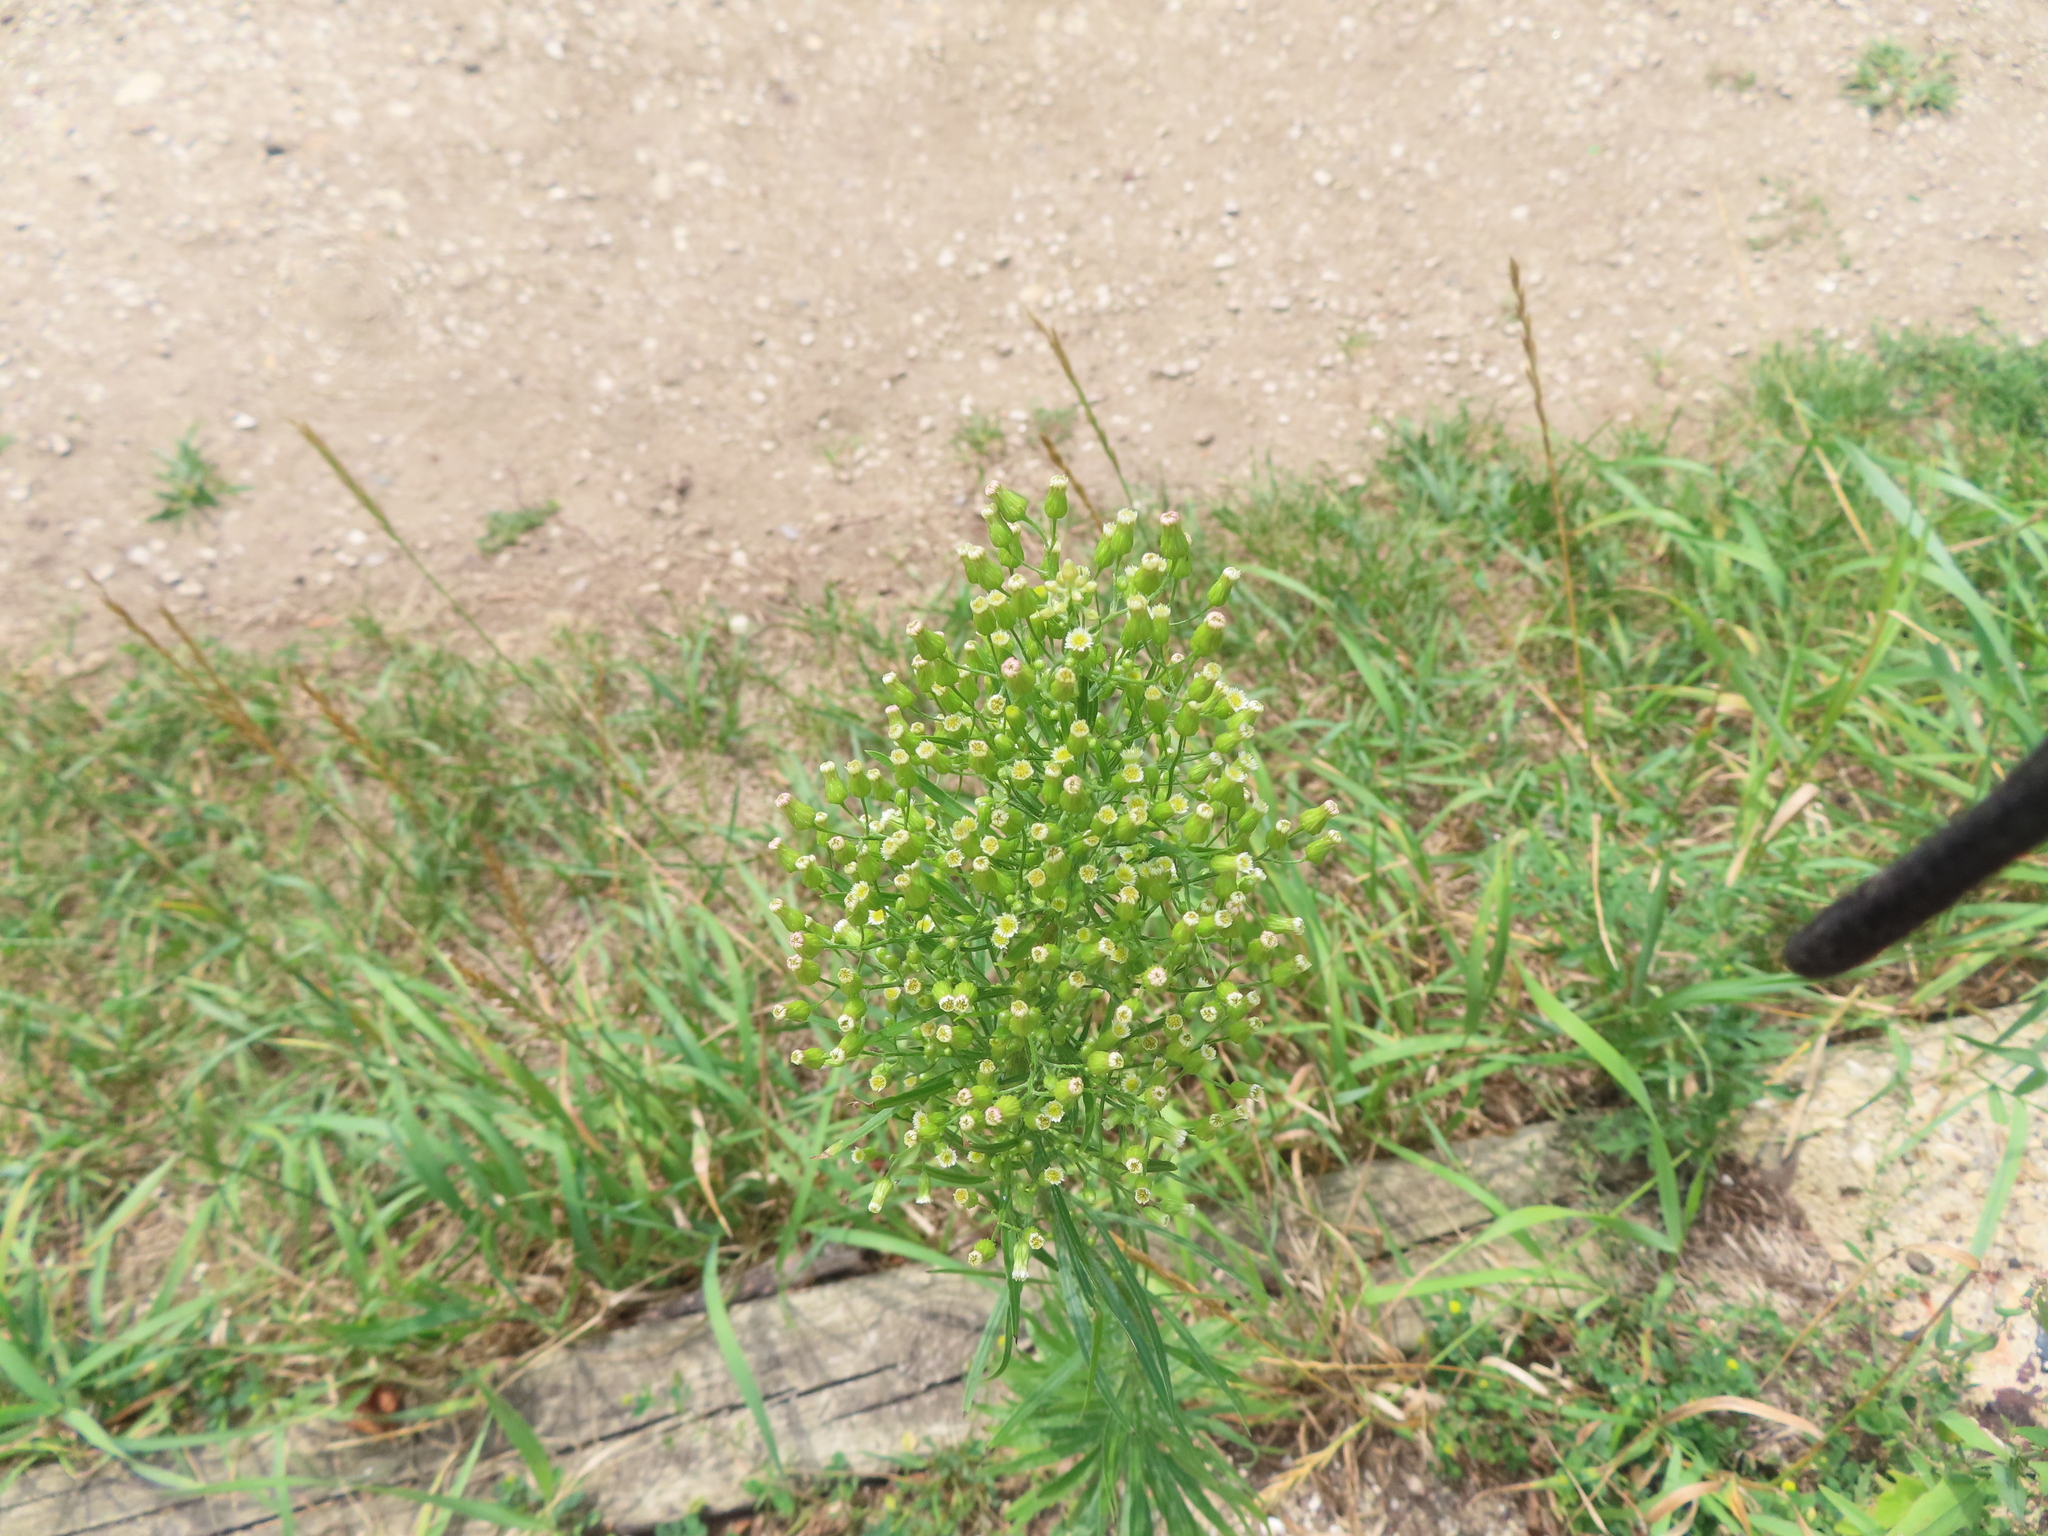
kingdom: Plantae
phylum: Tracheophyta
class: Magnoliopsida
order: Asterales
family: Asteraceae
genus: Erigeron
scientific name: Erigeron canadensis
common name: Canadian fleabane
